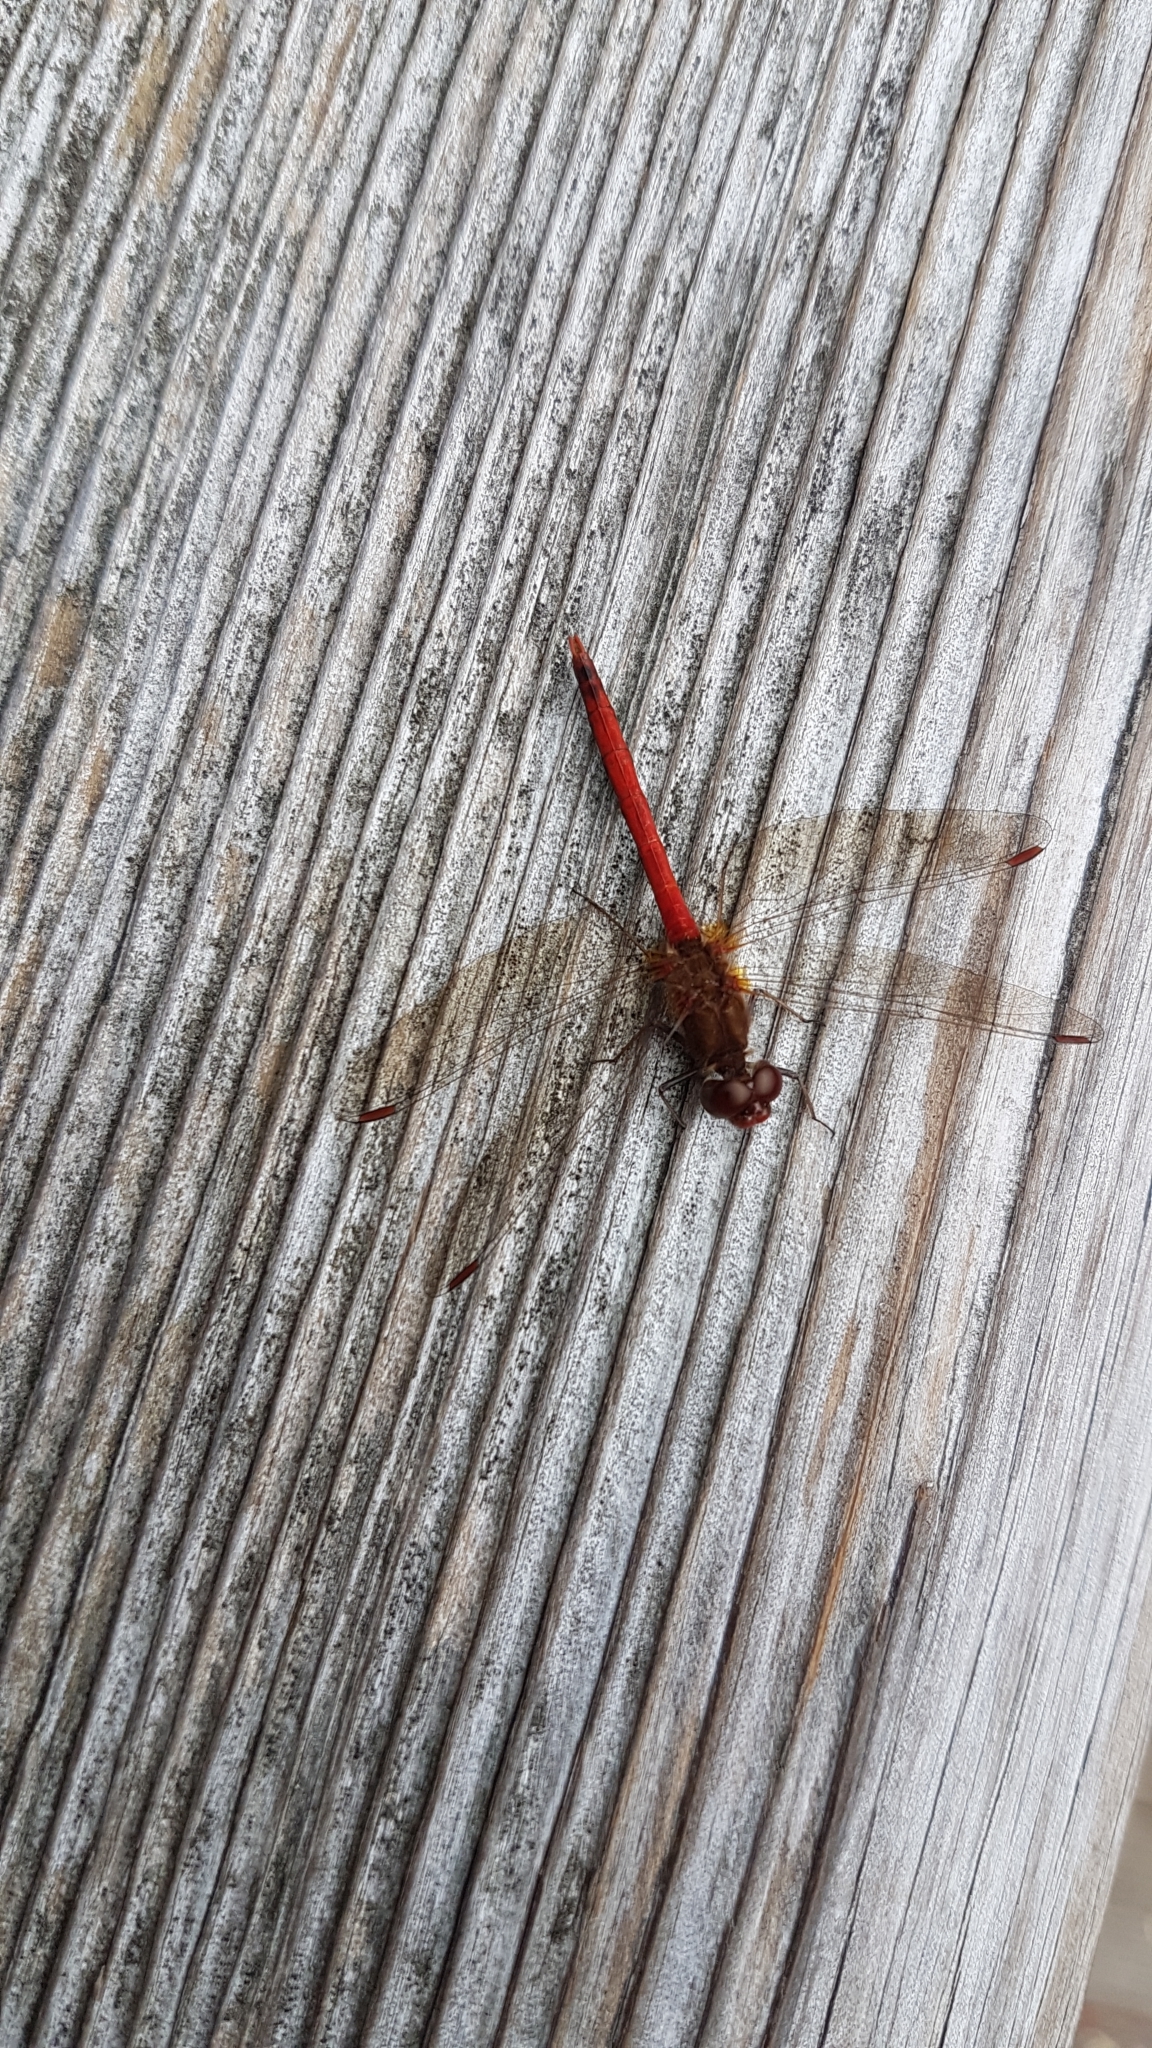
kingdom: Animalia
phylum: Arthropoda
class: Insecta
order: Odonata
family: Libellulidae
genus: Sympetrum
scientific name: Sympetrum vicinum
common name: Autumn meadowhawk
